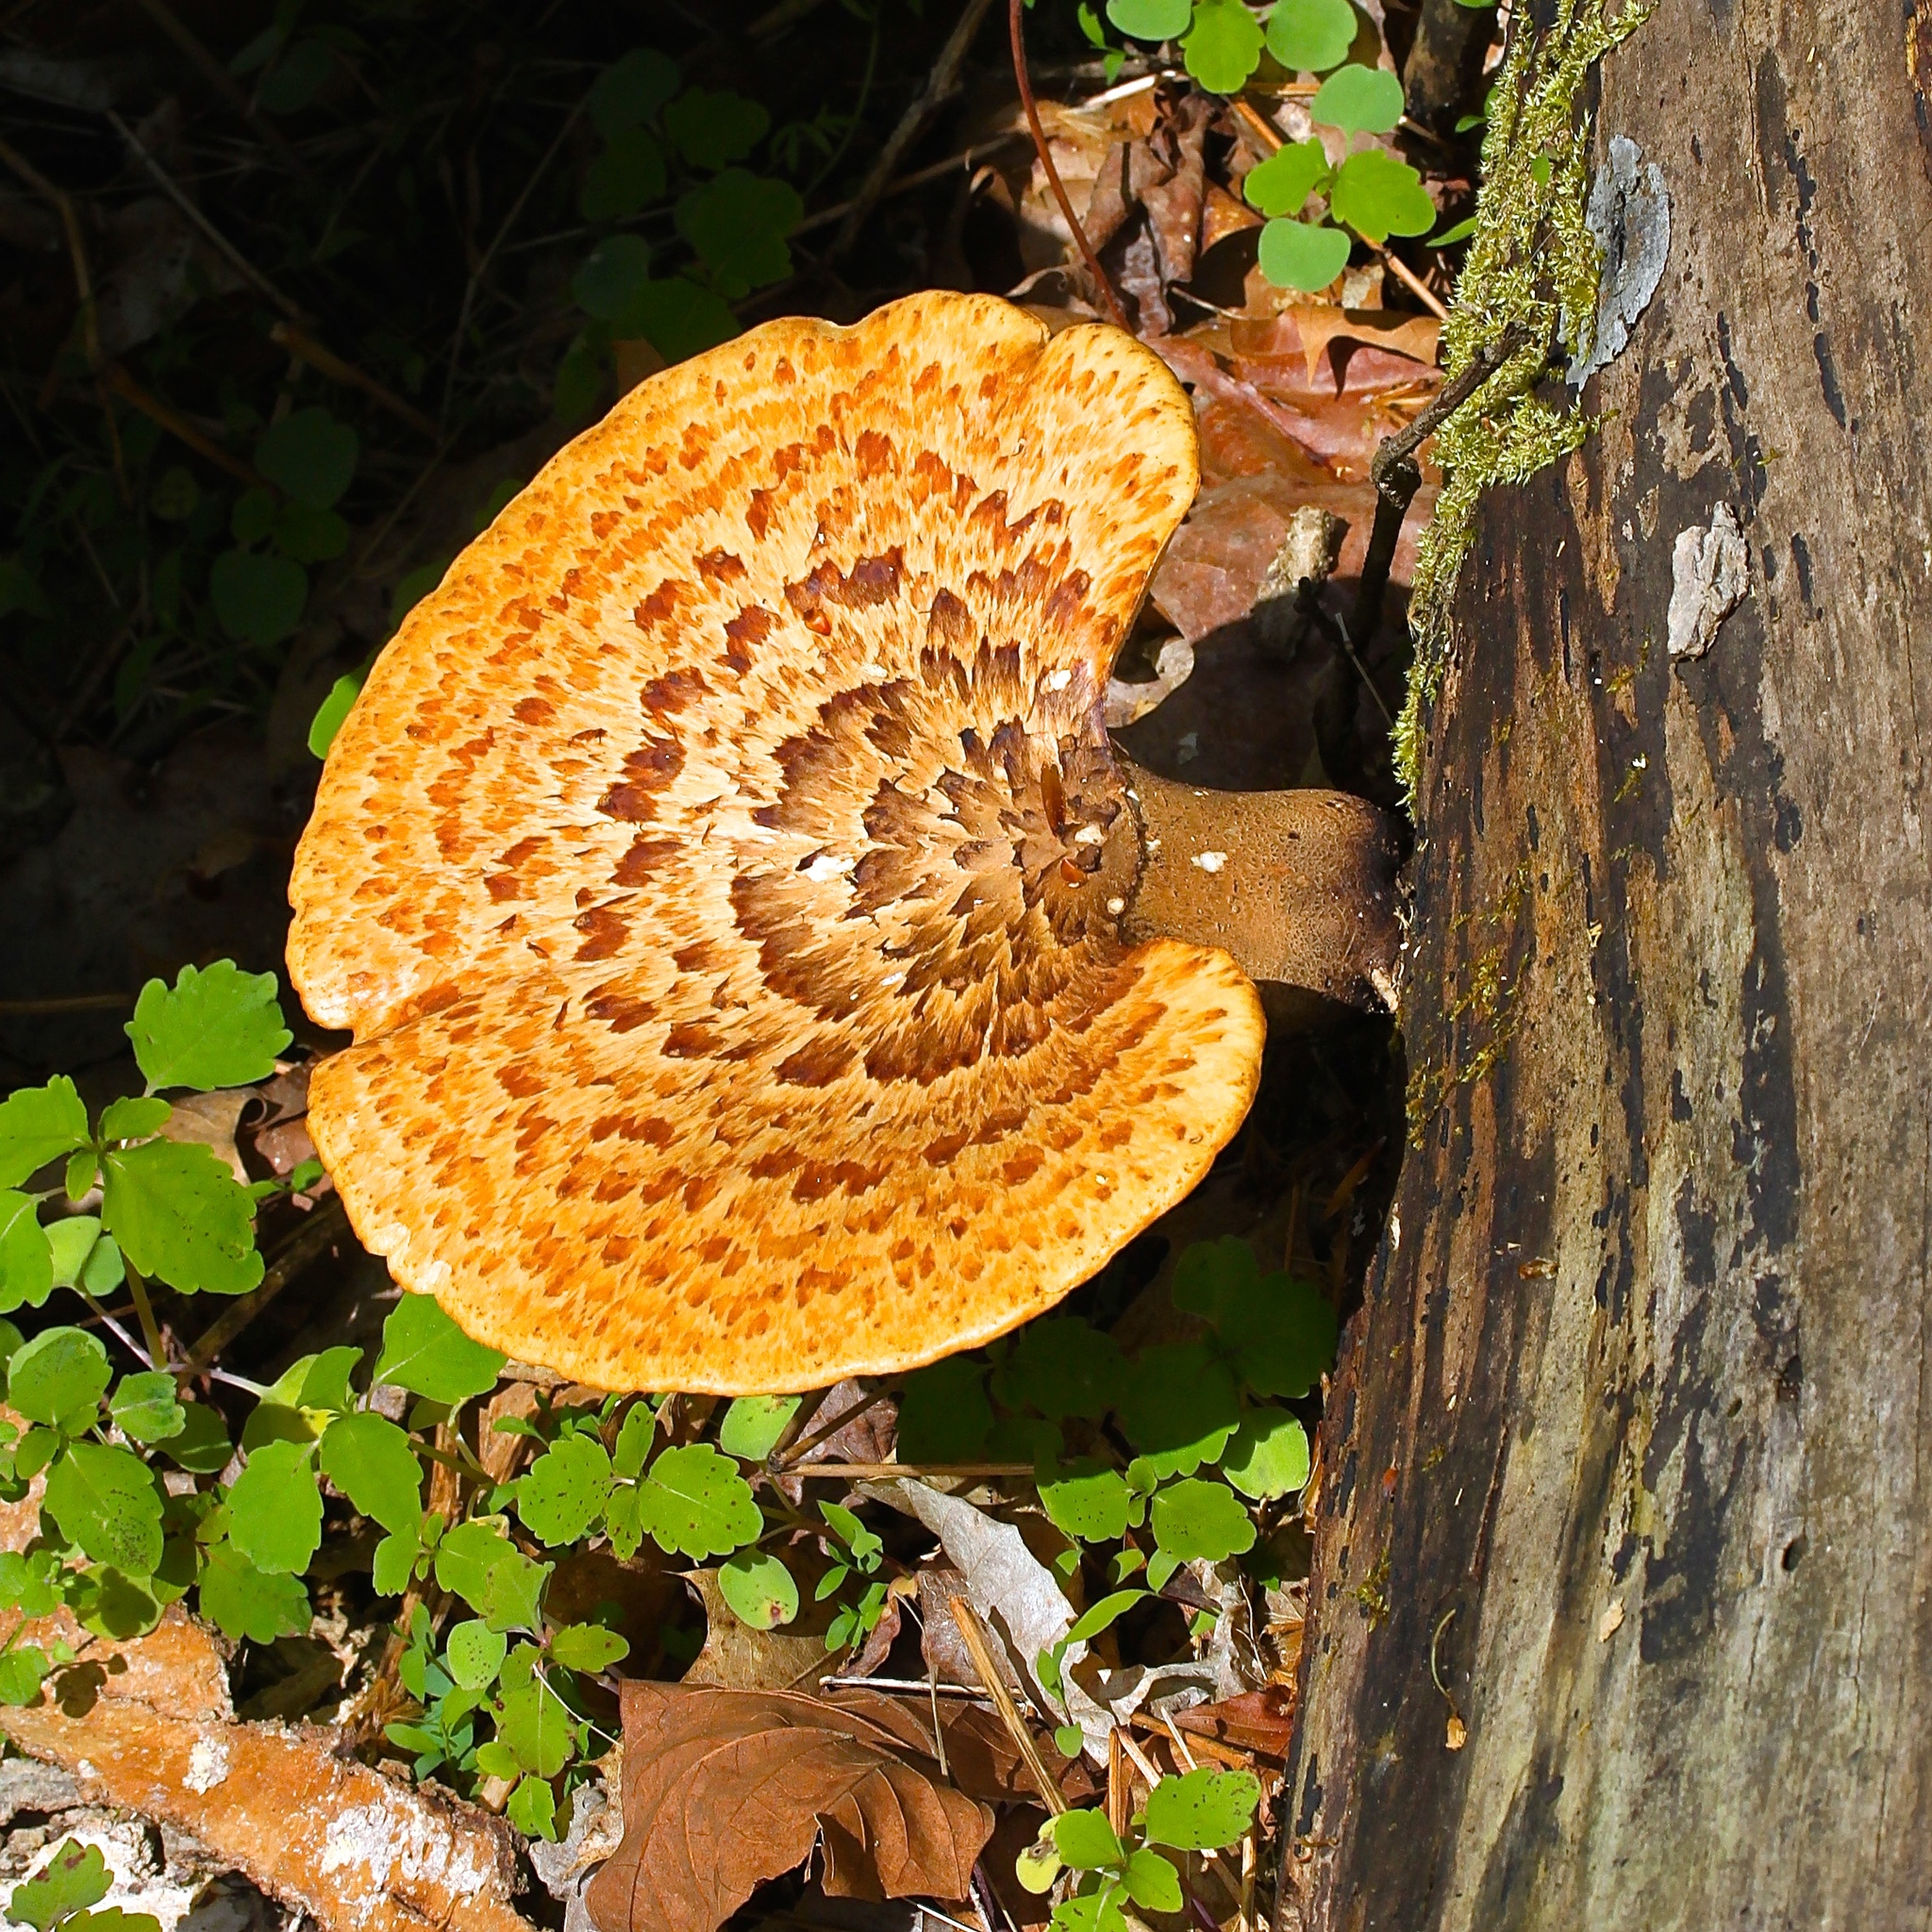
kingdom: Fungi
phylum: Basidiomycota
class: Agaricomycetes
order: Polyporales
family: Polyporaceae
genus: Cerioporus
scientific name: Cerioporus squamosus
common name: Dryad's saddle
